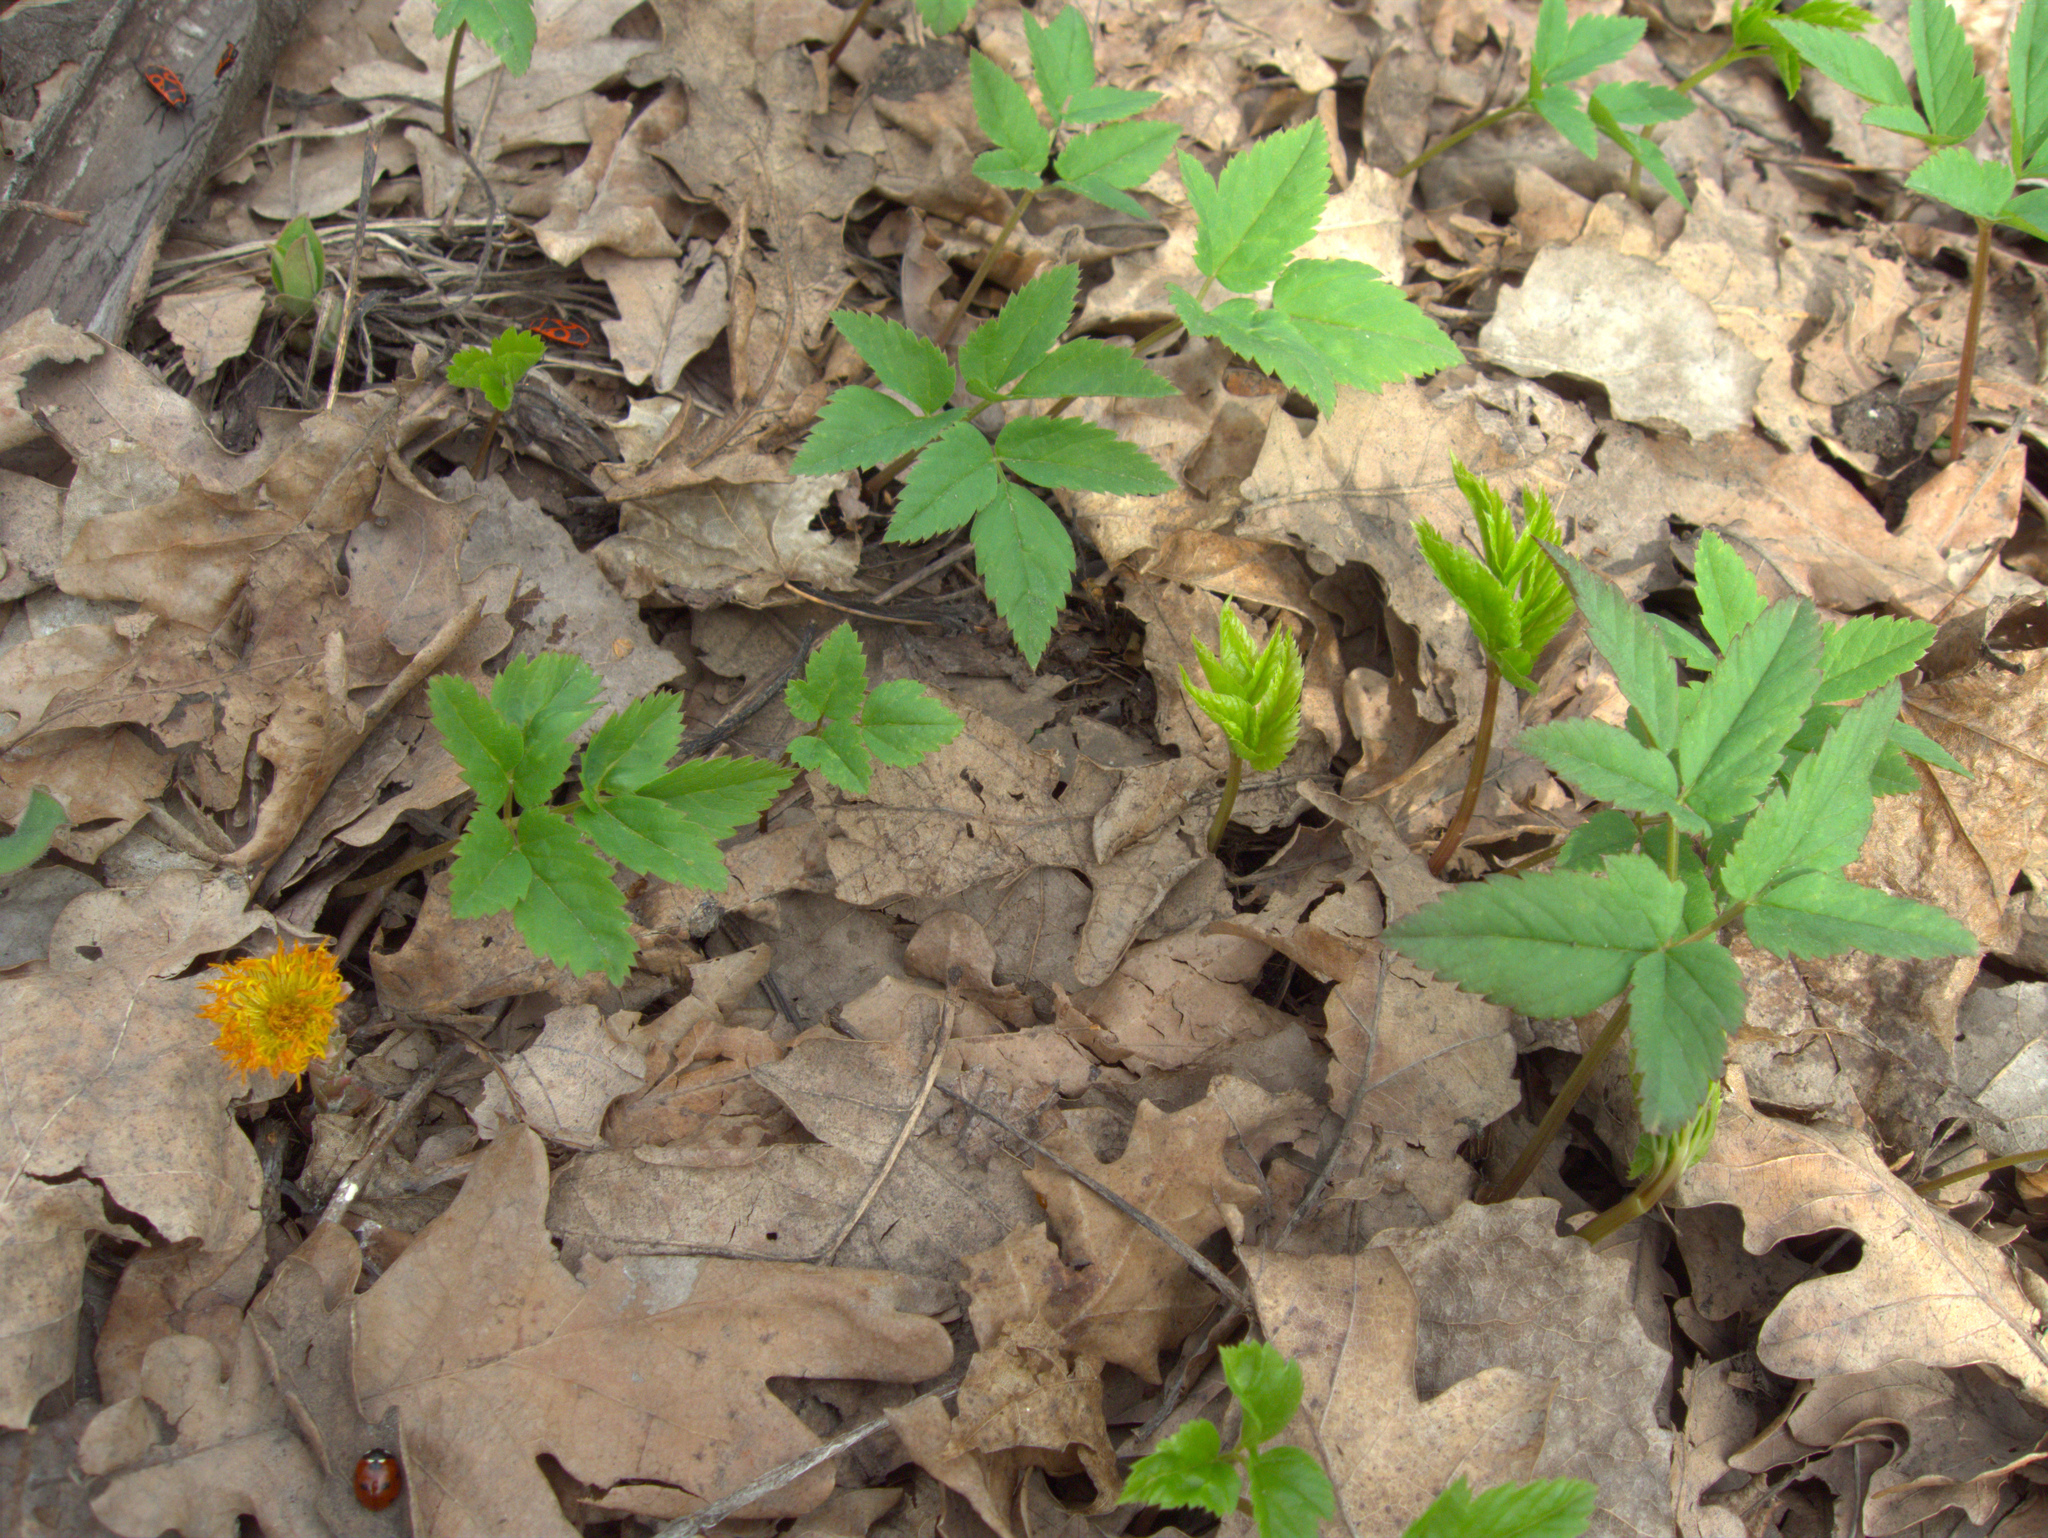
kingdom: Animalia
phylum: Arthropoda
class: Insecta
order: Coleoptera
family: Coccinellidae
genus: Coccinella
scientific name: Coccinella septempunctata
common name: Sevenspotted lady beetle
